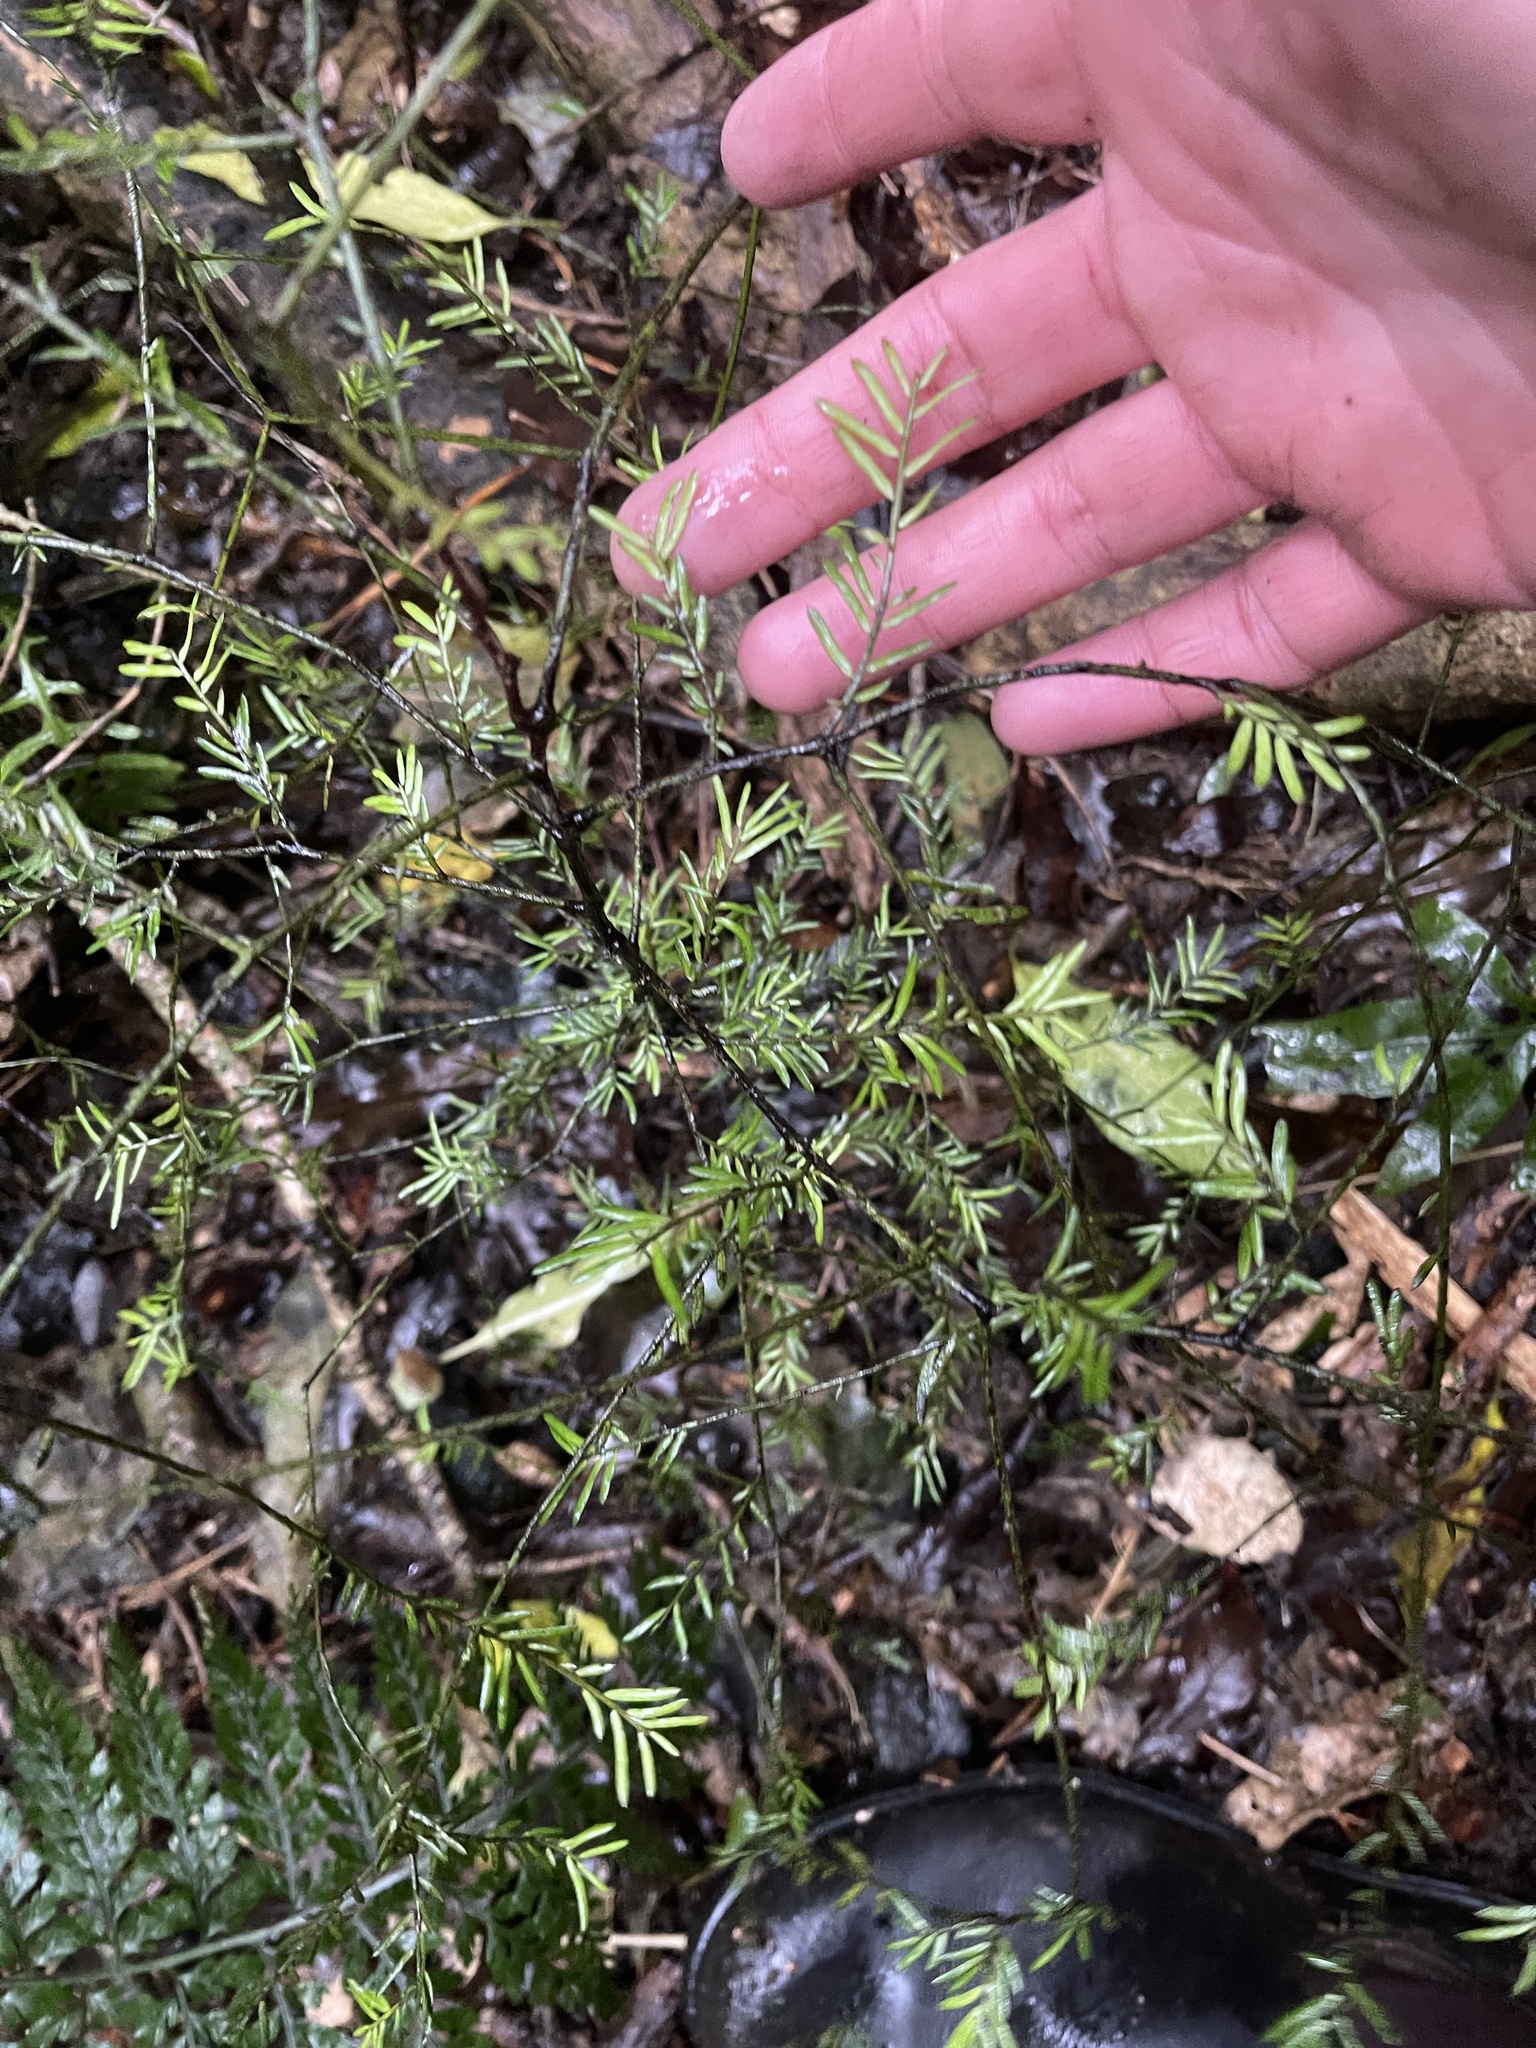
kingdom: Plantae
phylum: Tracheophyta
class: Pinopsida
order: Pinales
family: Podocarpaceae
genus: Prumnopitys
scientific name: Prumnopitys taxifolia
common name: Matai
